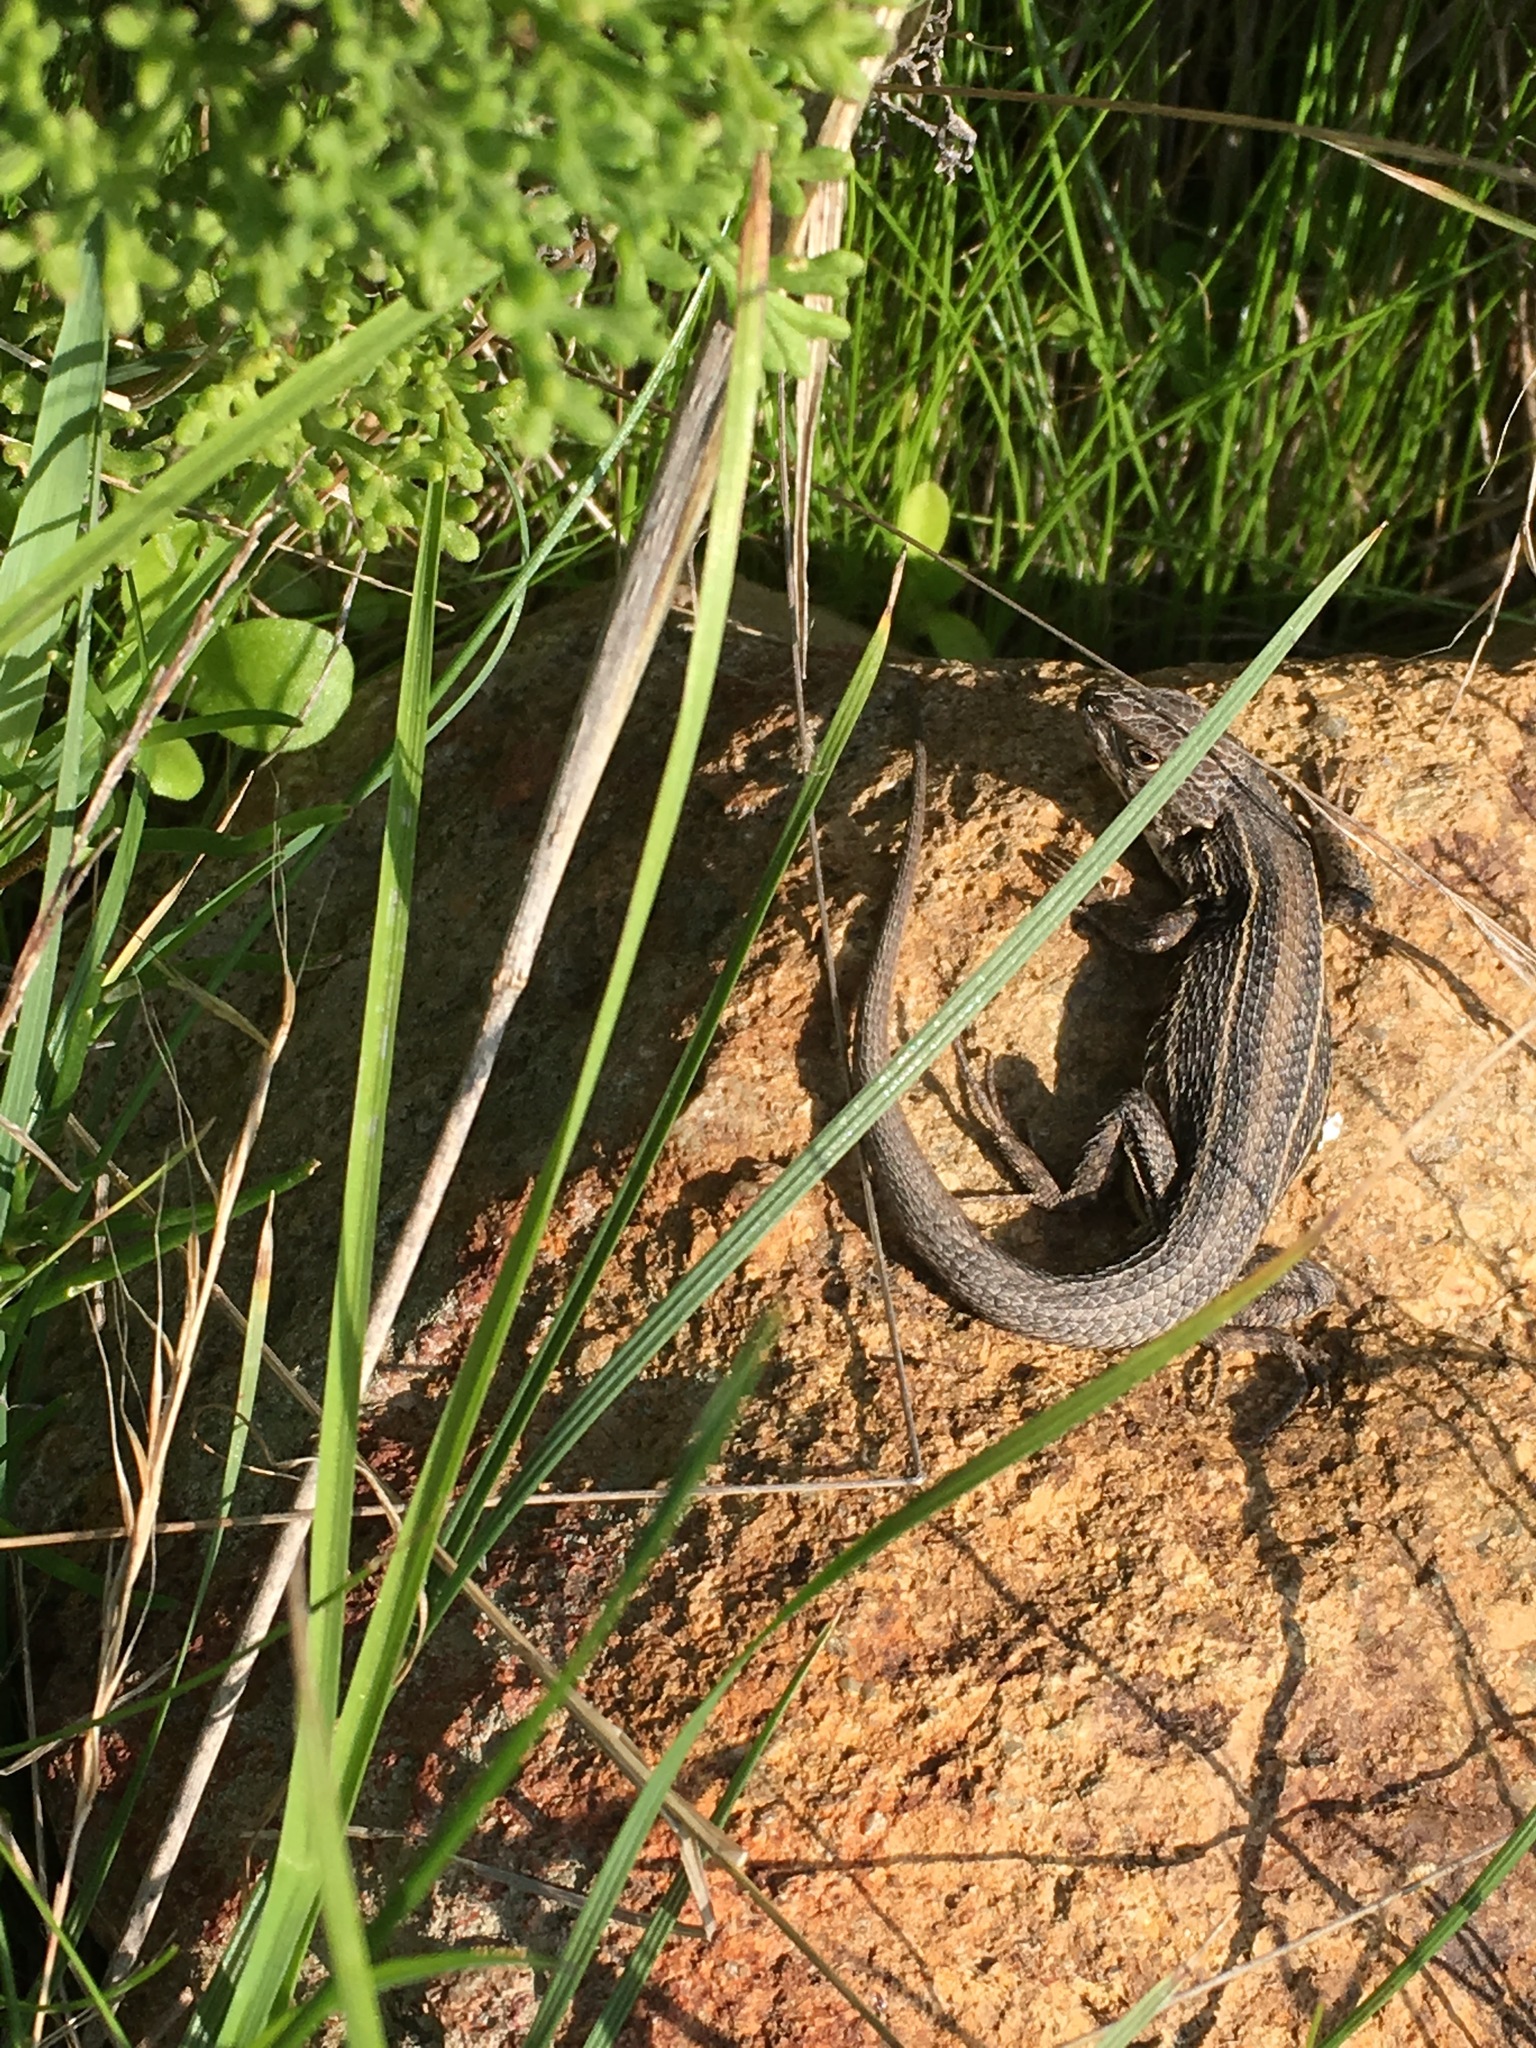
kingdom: Animalia
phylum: Chordata
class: Squamata
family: Liolaemidae
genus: Liolaemus
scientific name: Liolaemus lemniscatus
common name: Wreath tree iguana
